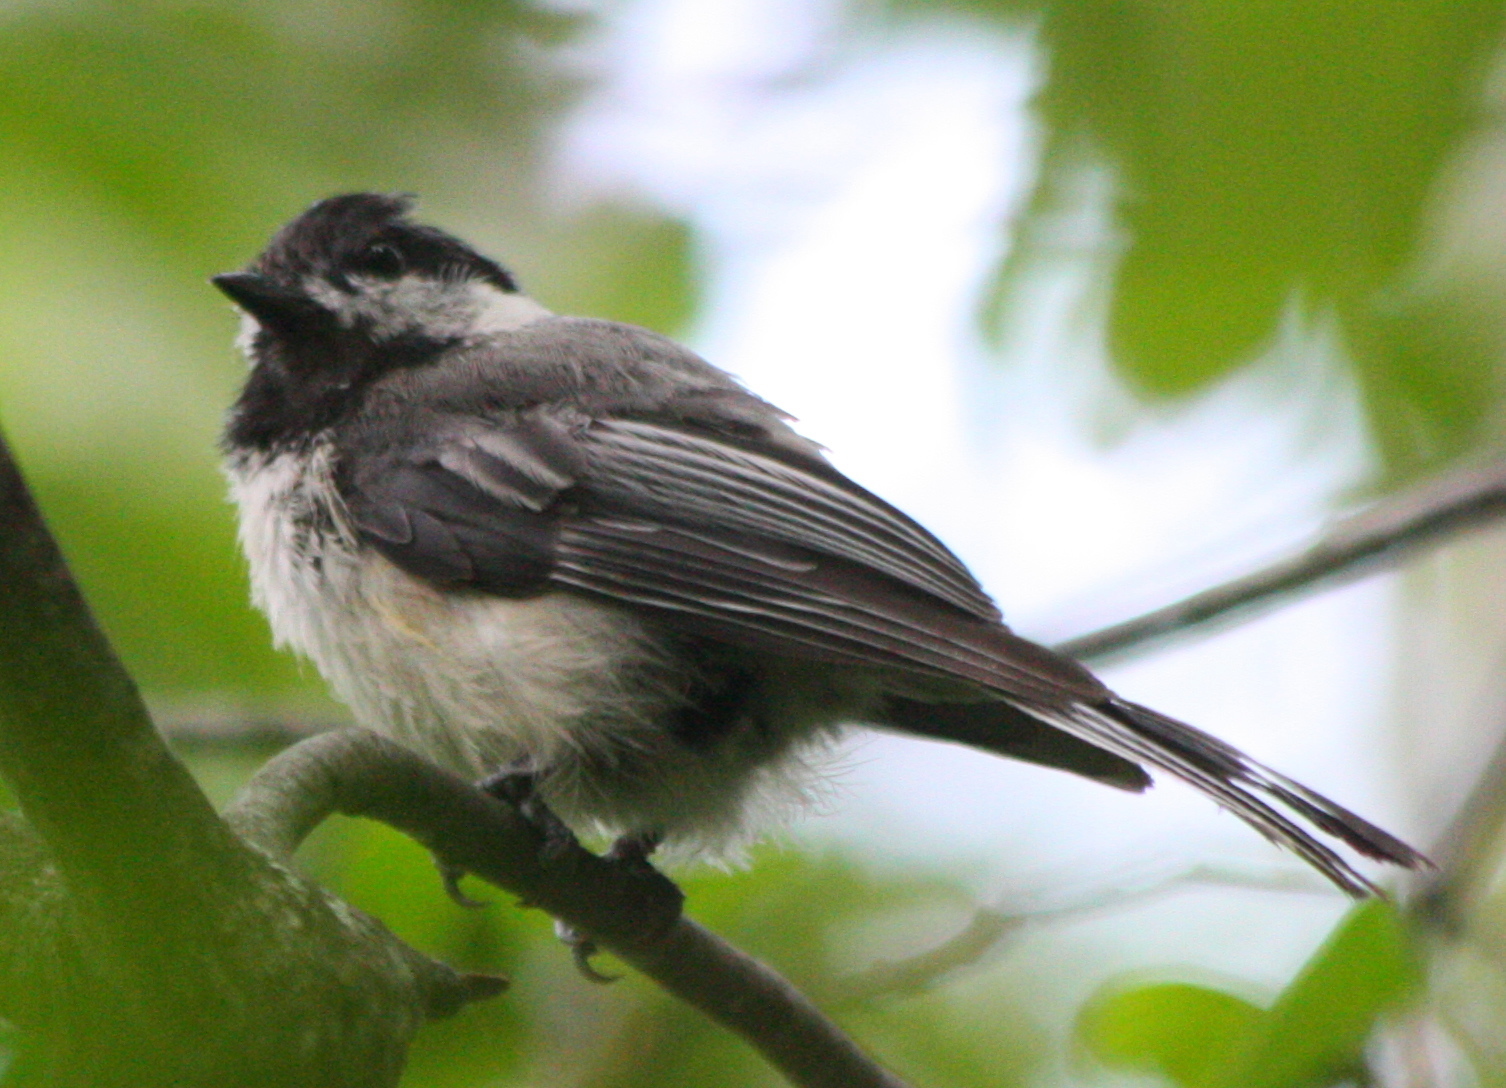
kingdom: Animalia
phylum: Chordata
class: Aves
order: Passeriformes
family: Paridae
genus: Poecile
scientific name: Poecile atricapillus
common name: Black-capped chickadee
